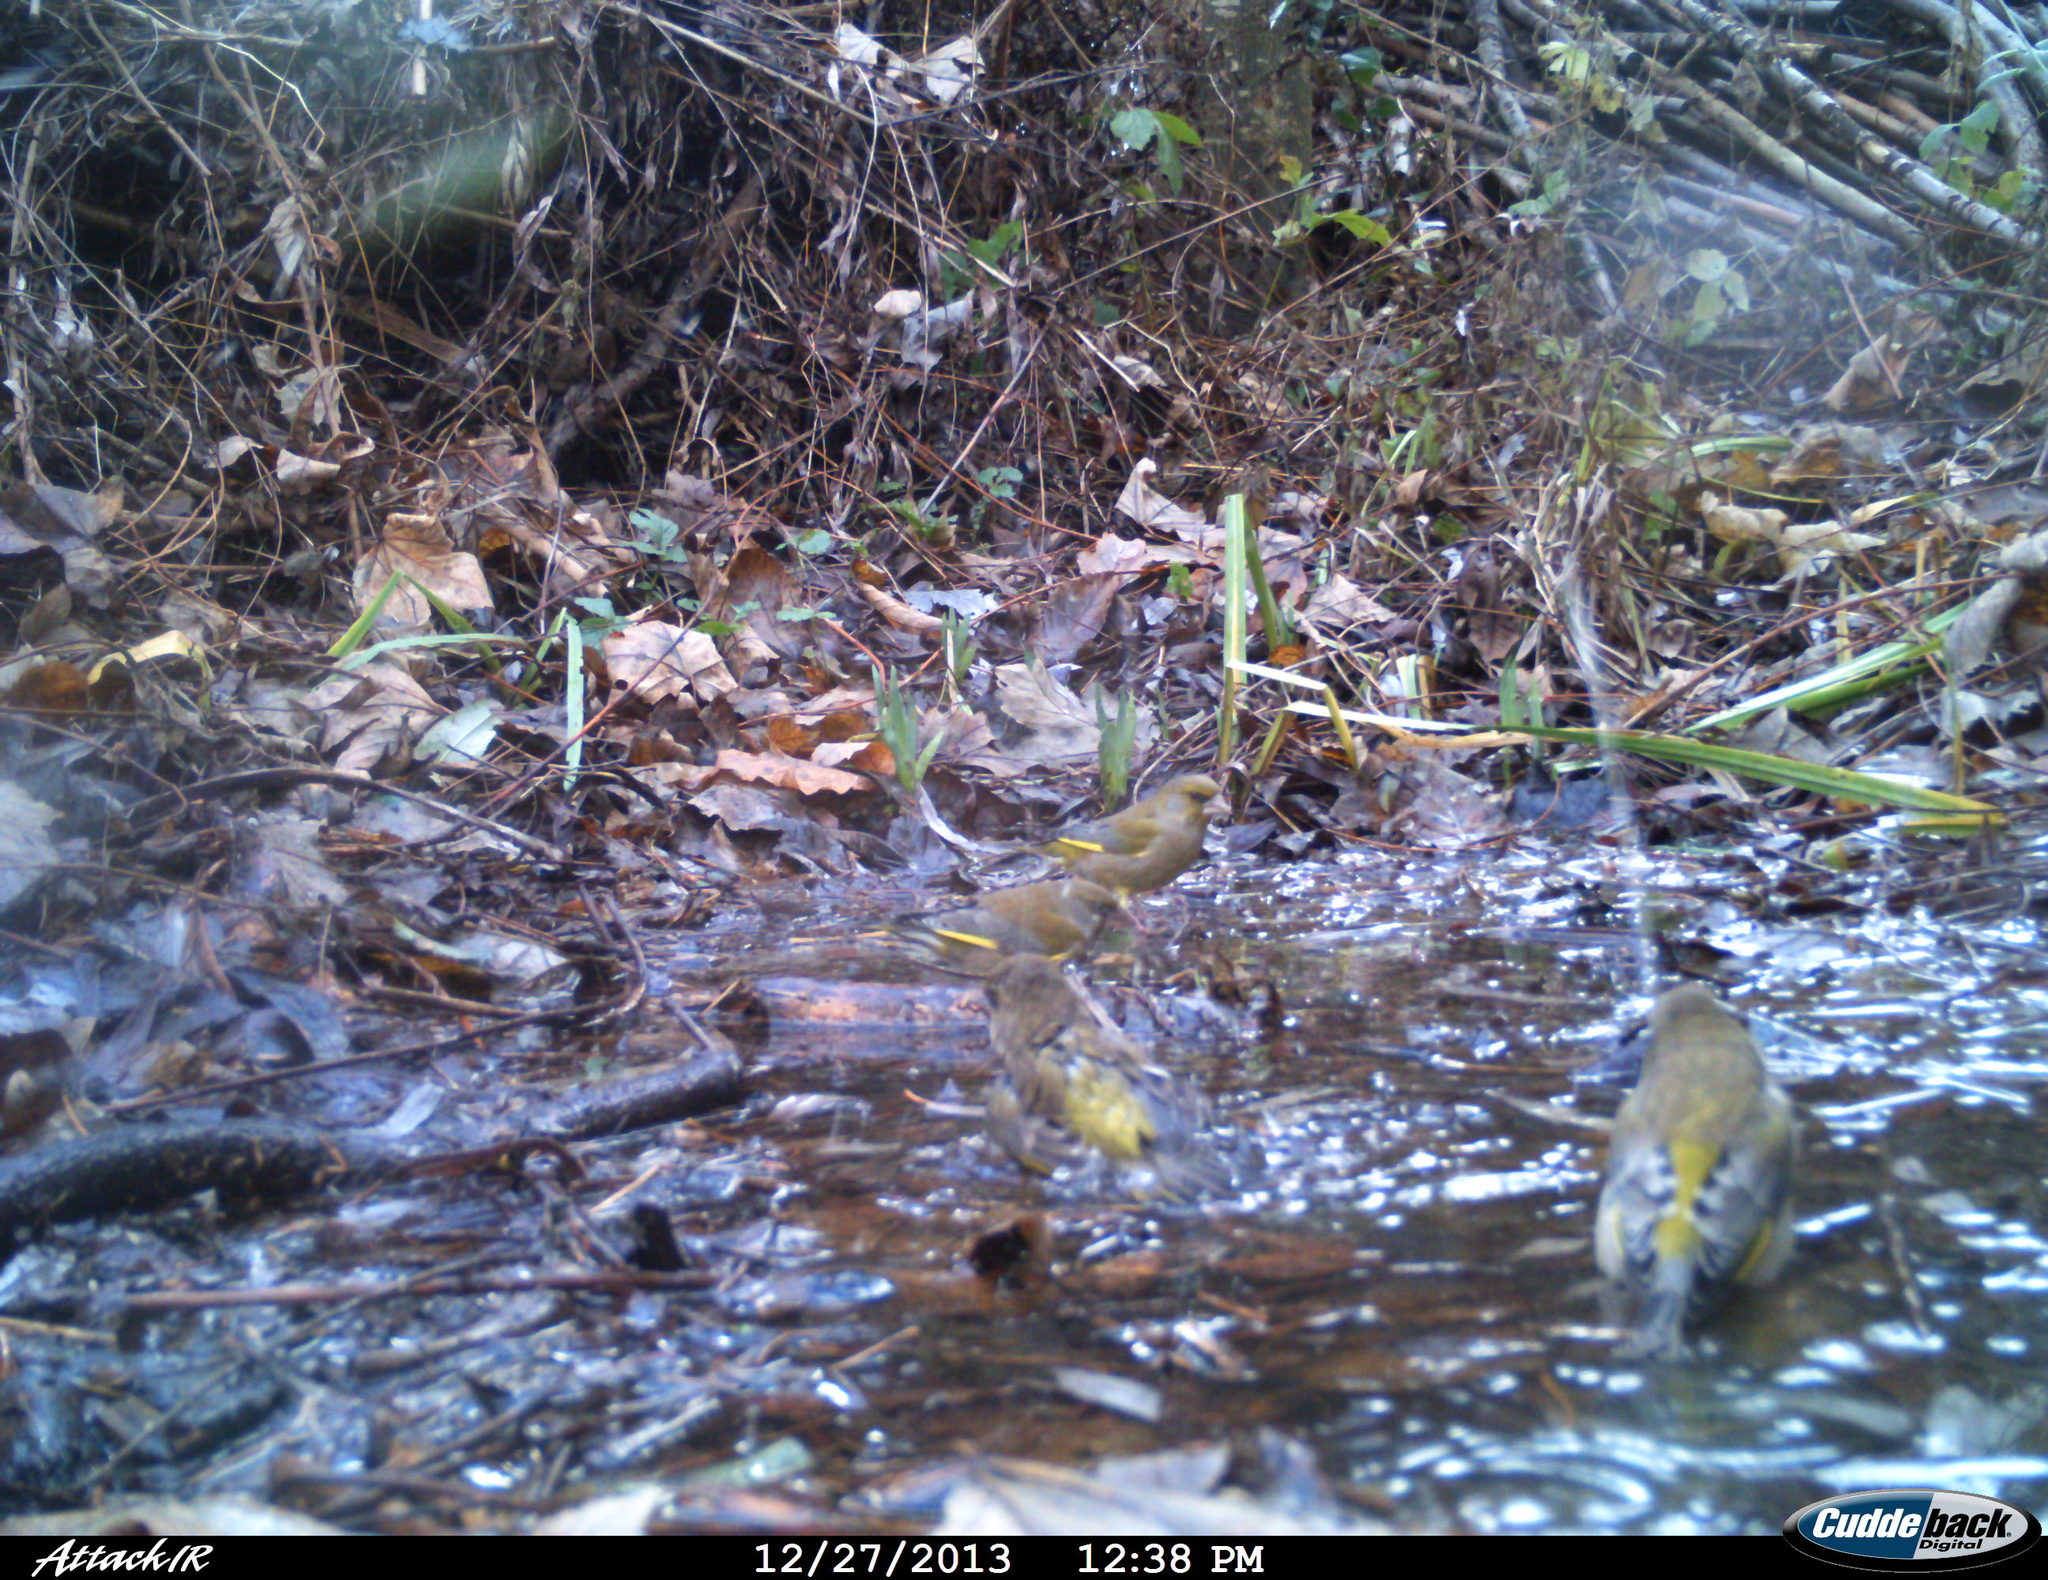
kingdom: Plantae
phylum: Tracheophyta
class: Liliopsida
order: Poales
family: Poaceae
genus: Chloris
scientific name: Chloris chloris
